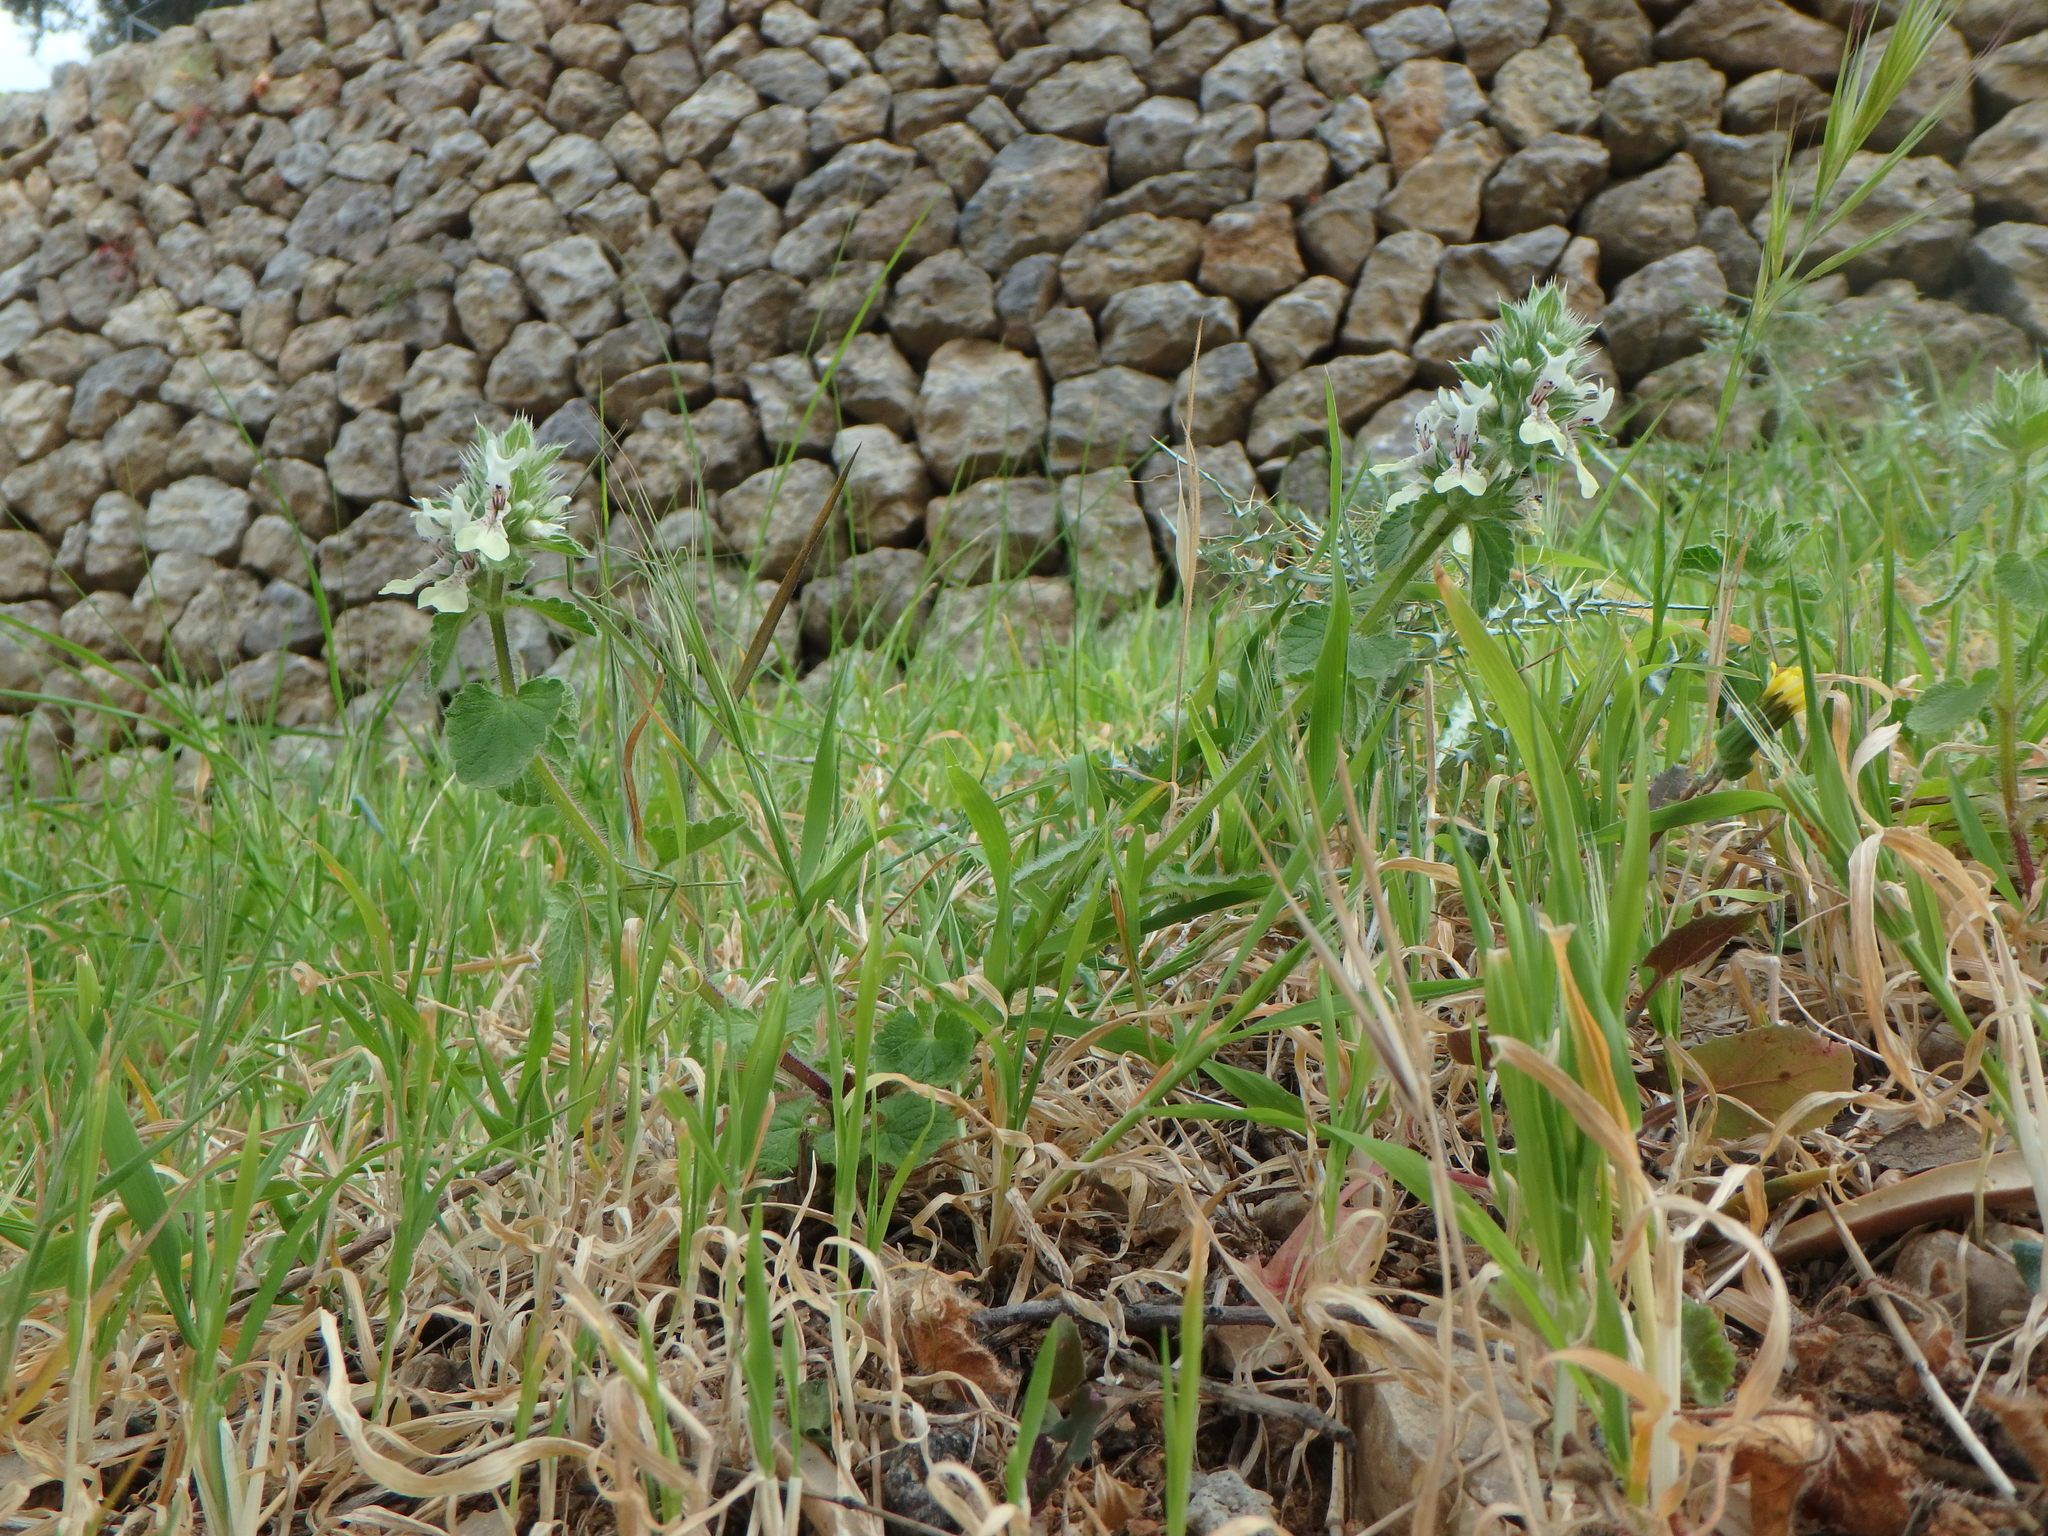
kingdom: Plantae
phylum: Tracheophyta
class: Magnoliopsida
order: Lamiales
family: Lamiaceae
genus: Stachys
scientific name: Stachys ocymastrum
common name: Italian hedgenettle
